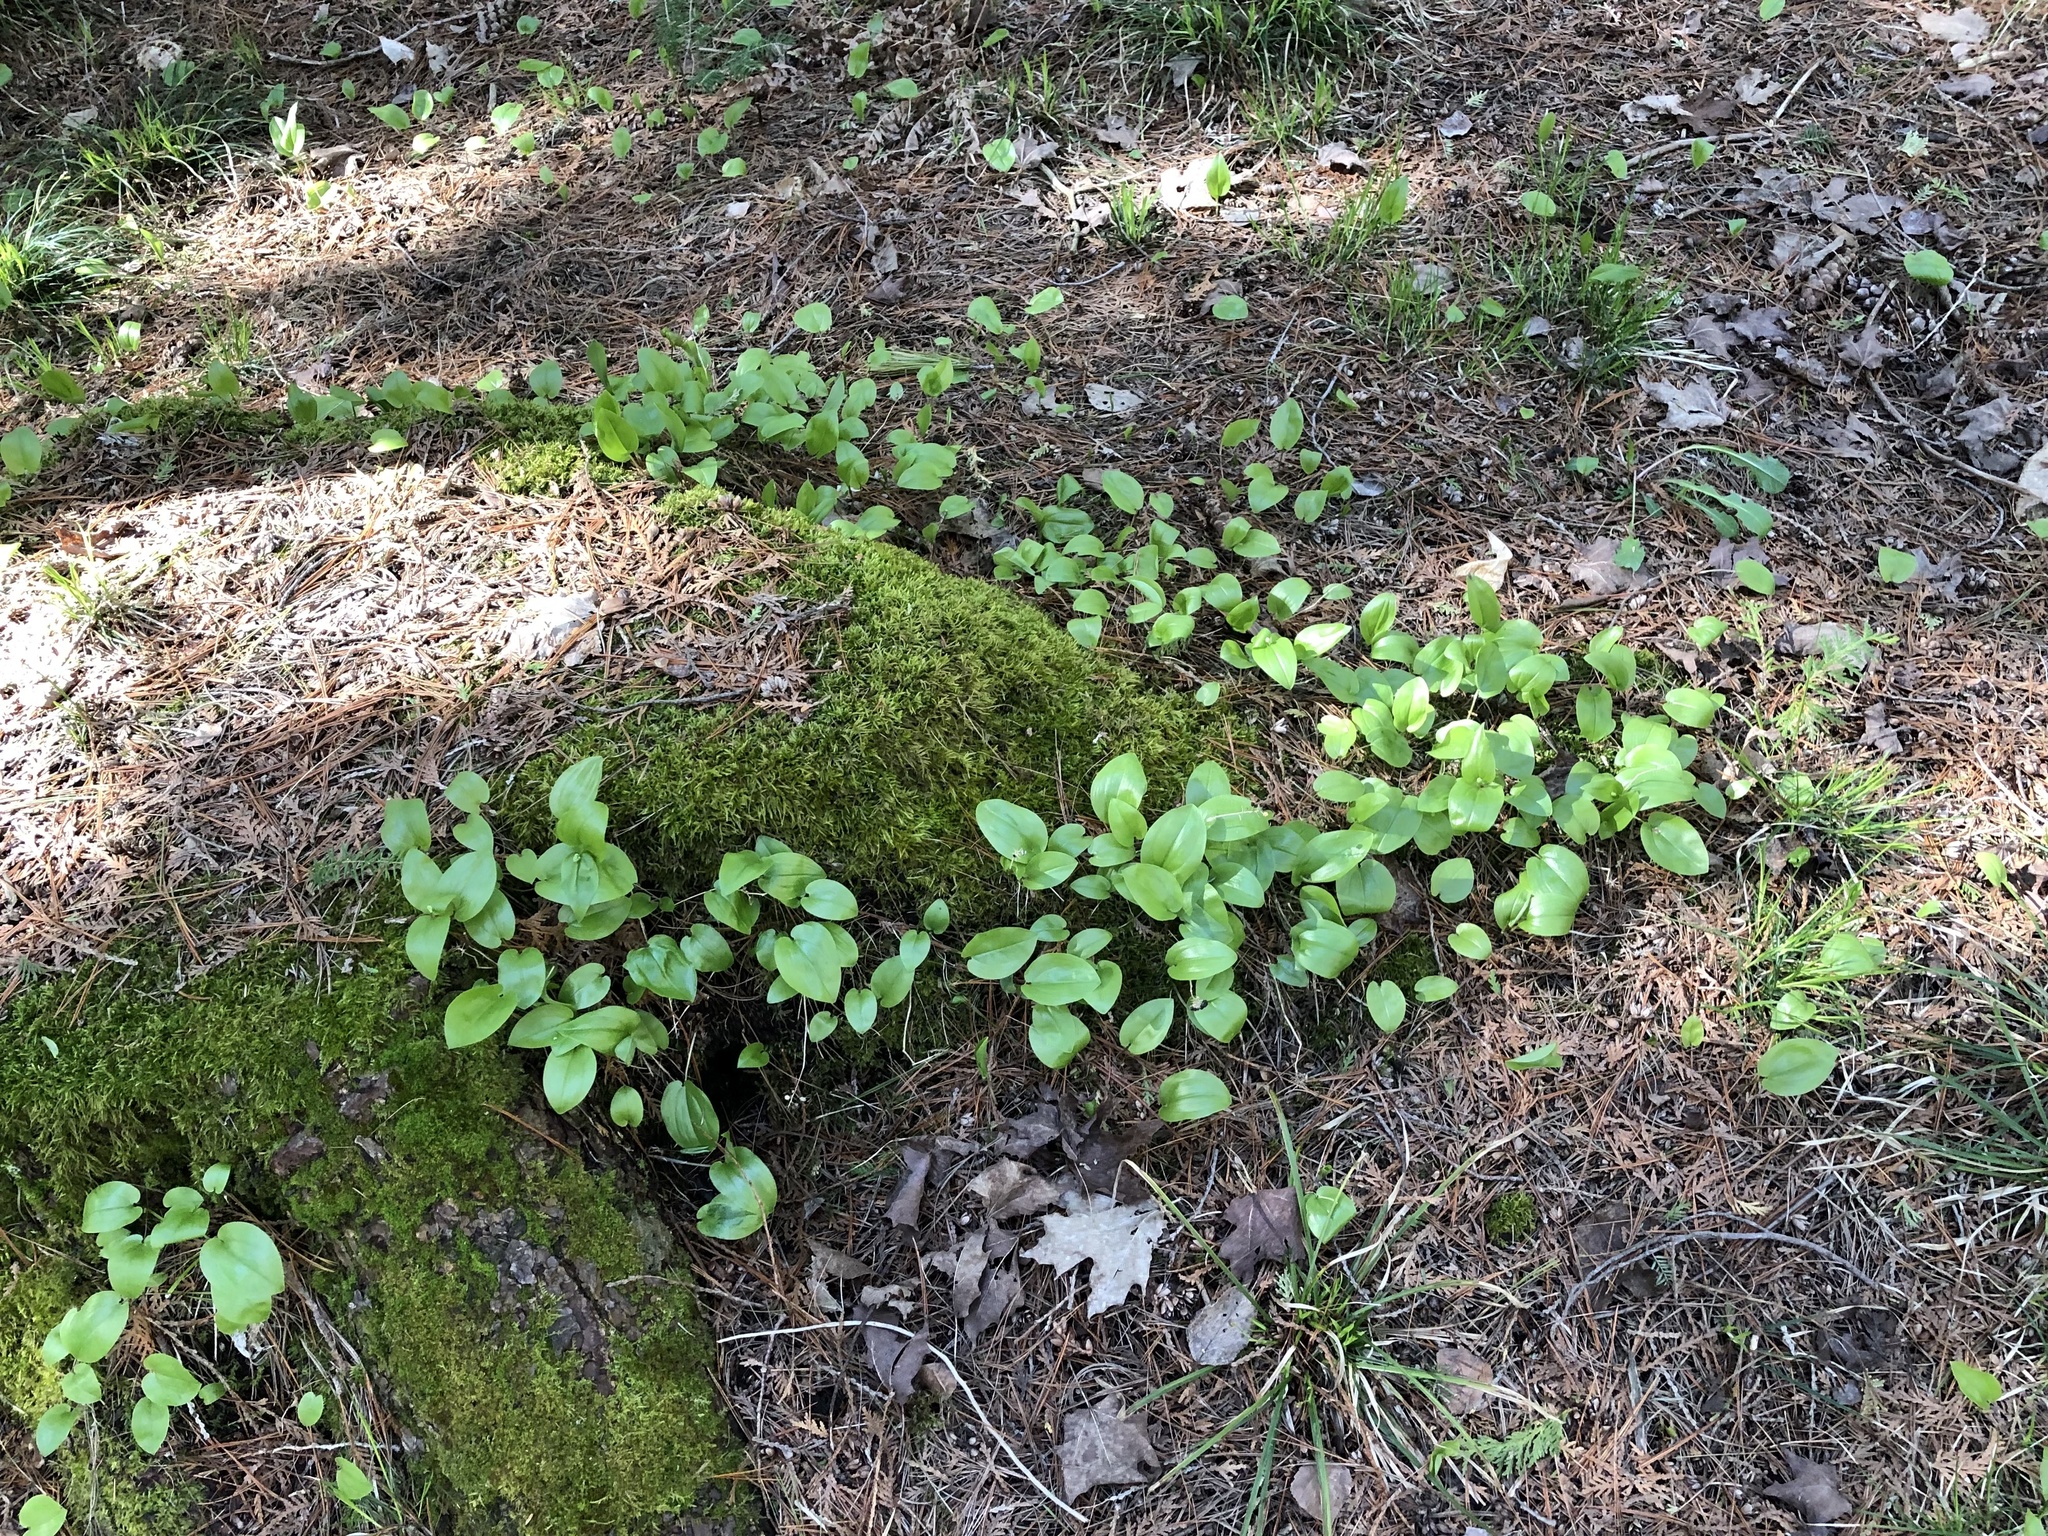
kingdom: Plantae
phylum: Tracheophyta
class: Liliopsida
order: Asparagales
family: Asparagaceae
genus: Maianthemum
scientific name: Maianthemum canadense
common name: False lily-of-the-valley
